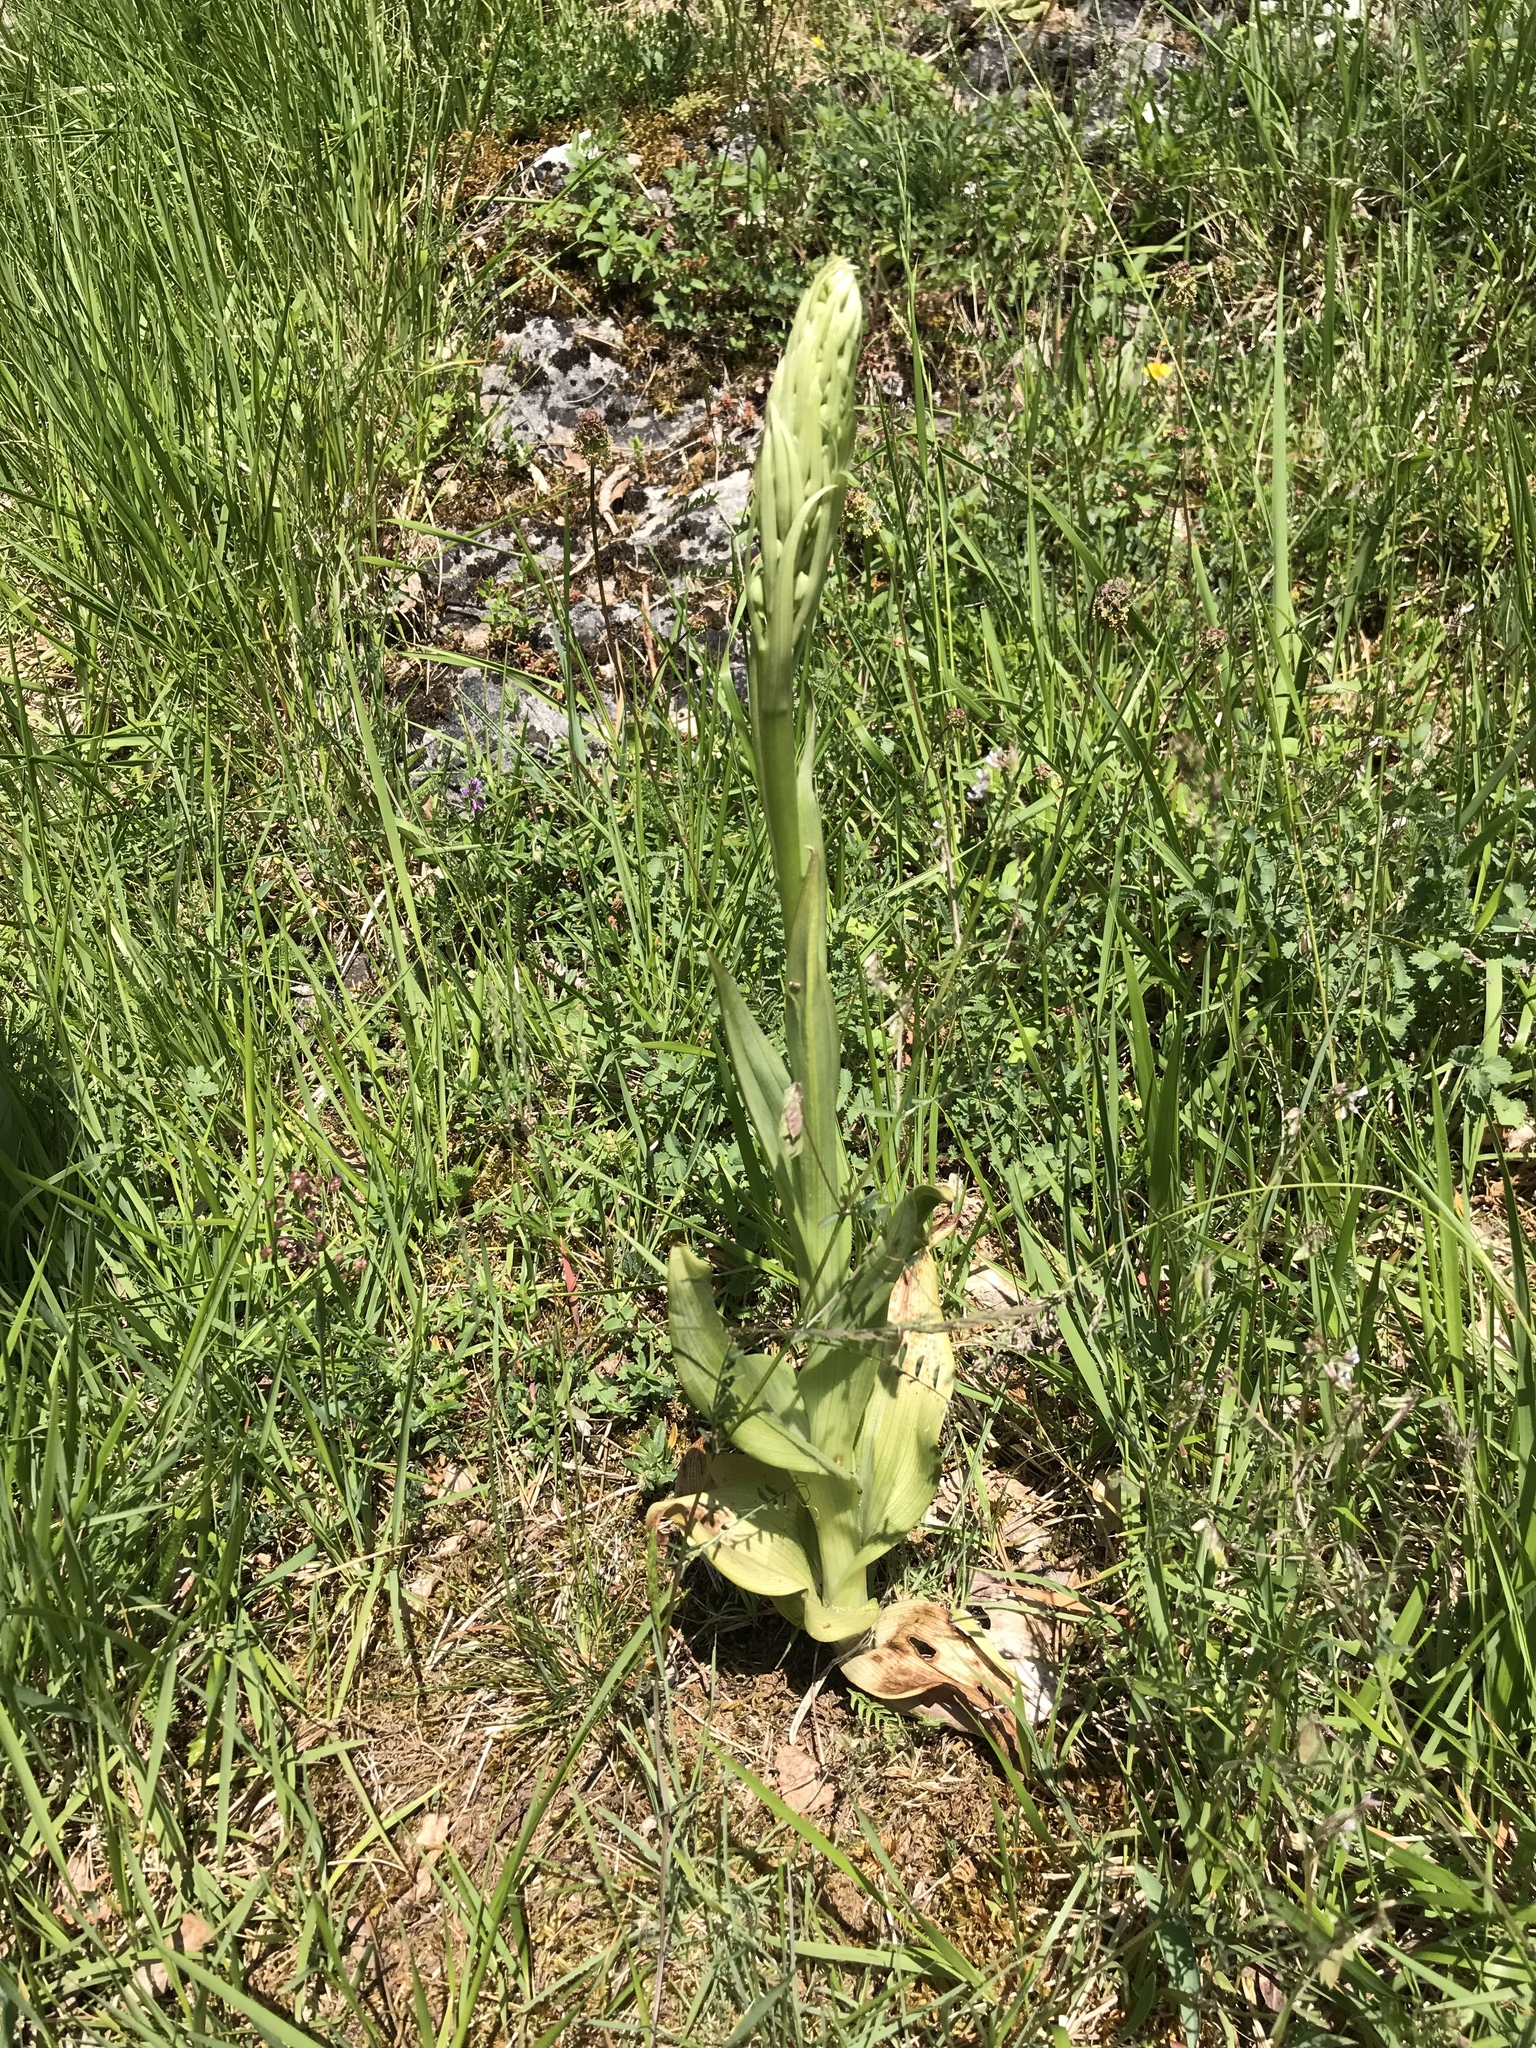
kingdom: Plantae
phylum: Tracheophyta
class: Liliopsida
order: Asparagales
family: Orchidaceae
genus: Himantoglossum
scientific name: Himantoglossum hircinum
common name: Lizard orchid
